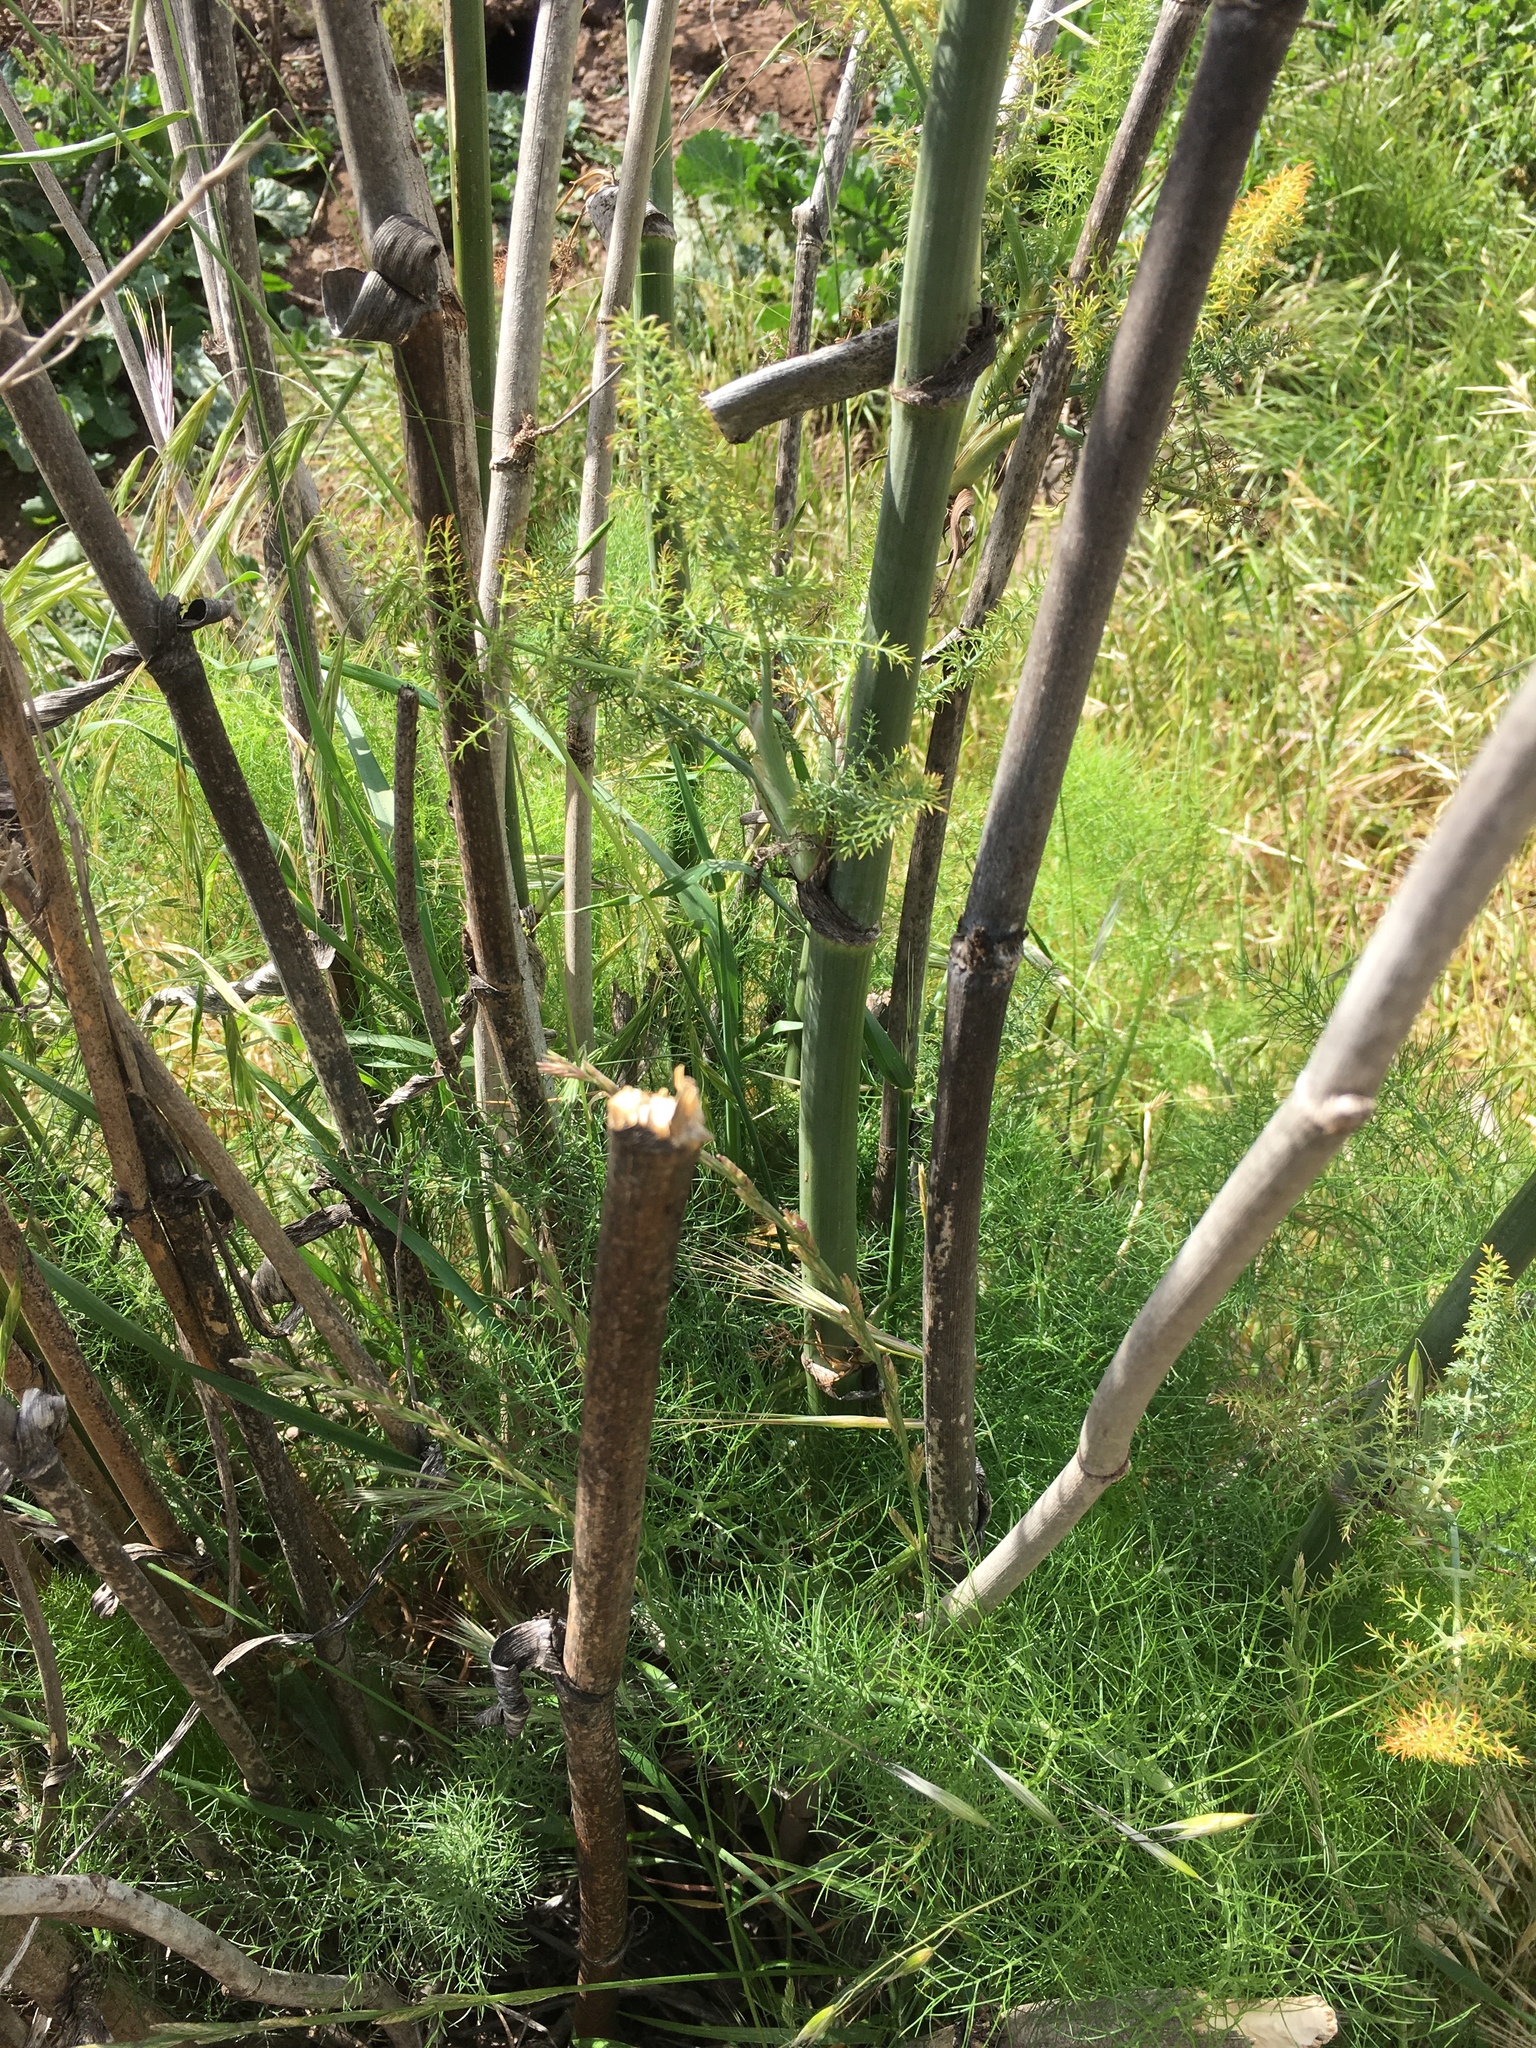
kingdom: Plantae
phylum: Tracheophyta
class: Magnoliopsida
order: Apiales
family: Apiaceae
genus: Foeniculum
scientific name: Foeniculum vulgare
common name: Fennel
